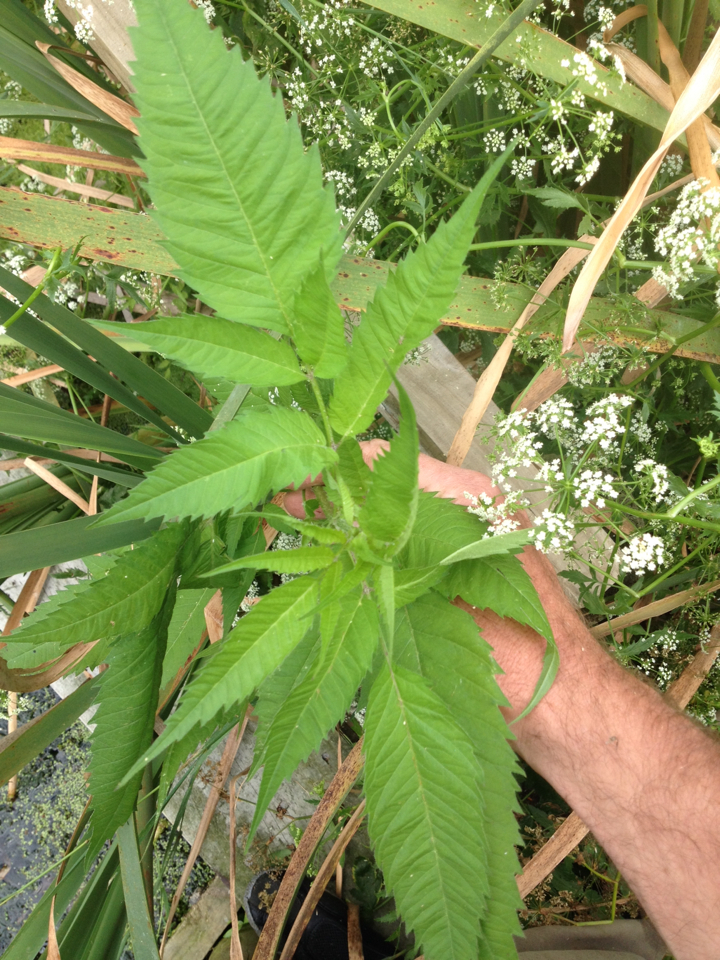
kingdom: Plantae
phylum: Tracheophyta
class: Magnoliopsida
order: Asterales
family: Asteraceae
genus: Bidens
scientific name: Bidens frondosa
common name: Beggarticks
